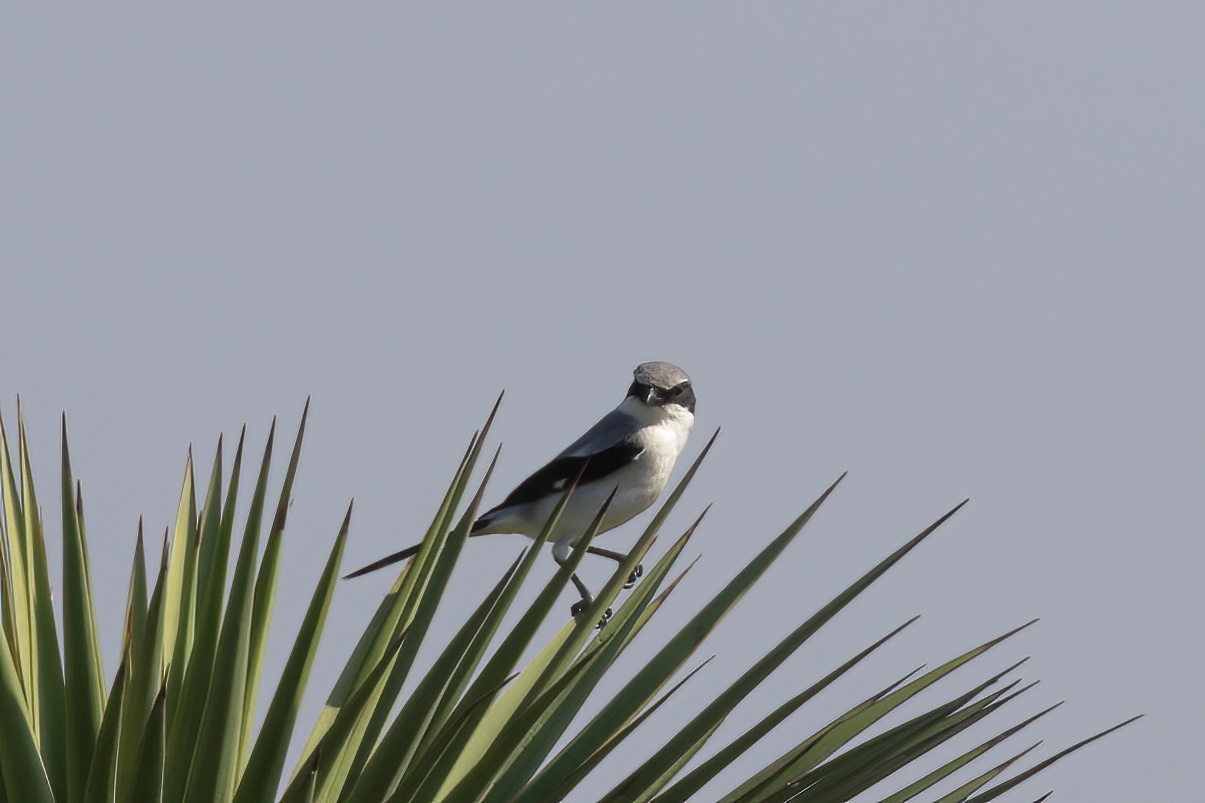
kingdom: Animalia
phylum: Chordata
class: Aves
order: Passeriformes
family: Laniidae
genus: Lanius
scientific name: Lanius ludovicianus
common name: Loggerhead shrike
